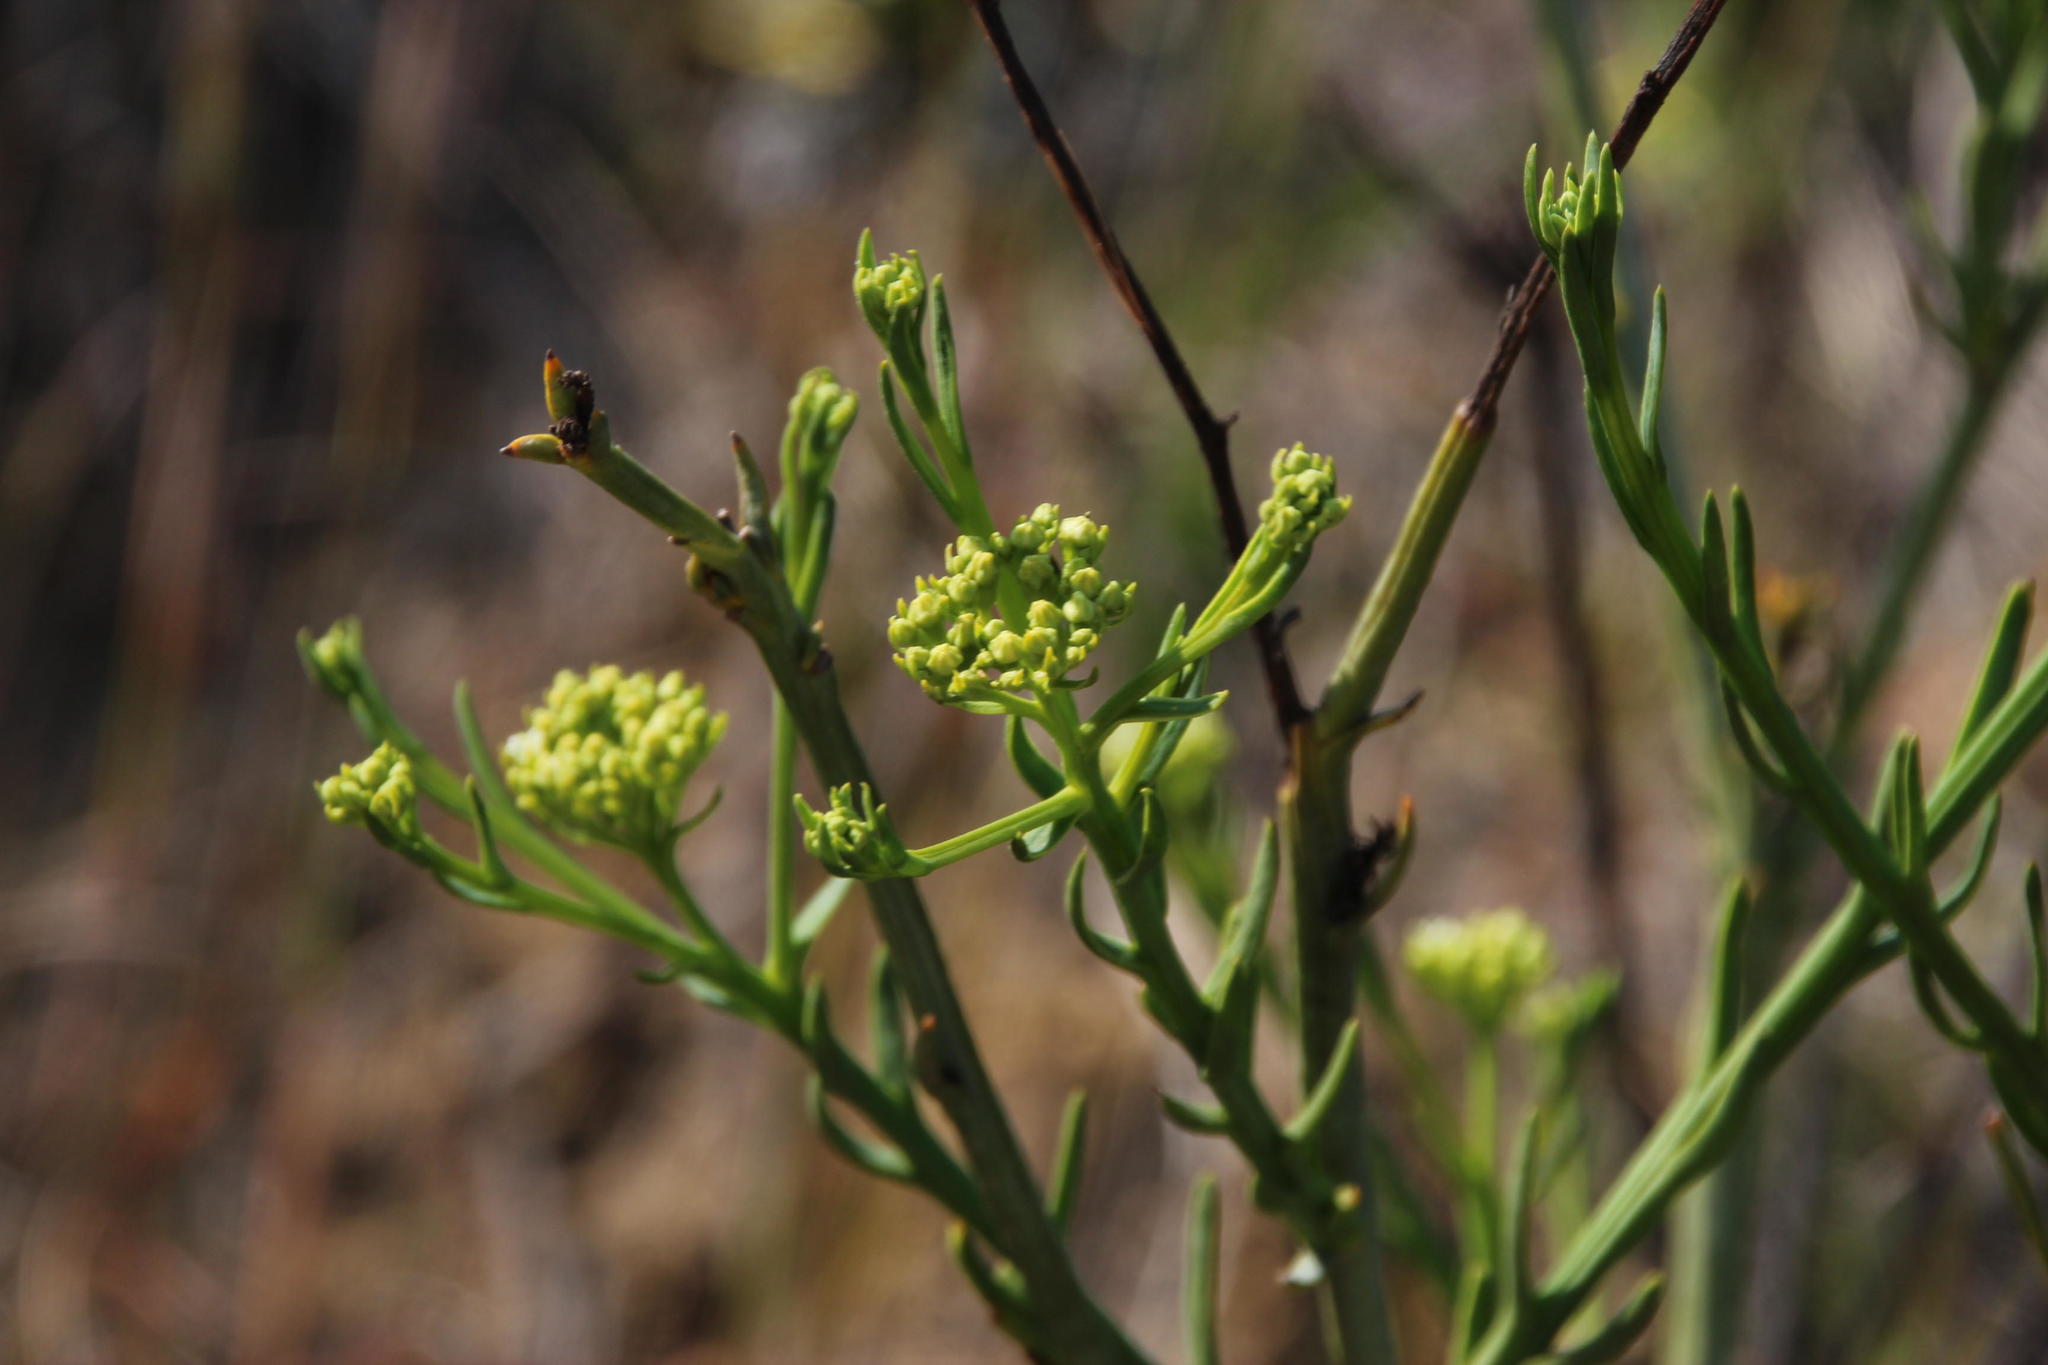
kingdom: Plantae
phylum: Tracheophyta
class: Magnoliopsida
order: Santalales
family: Thesiaceae
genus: Thesium
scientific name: Thesium strictum
